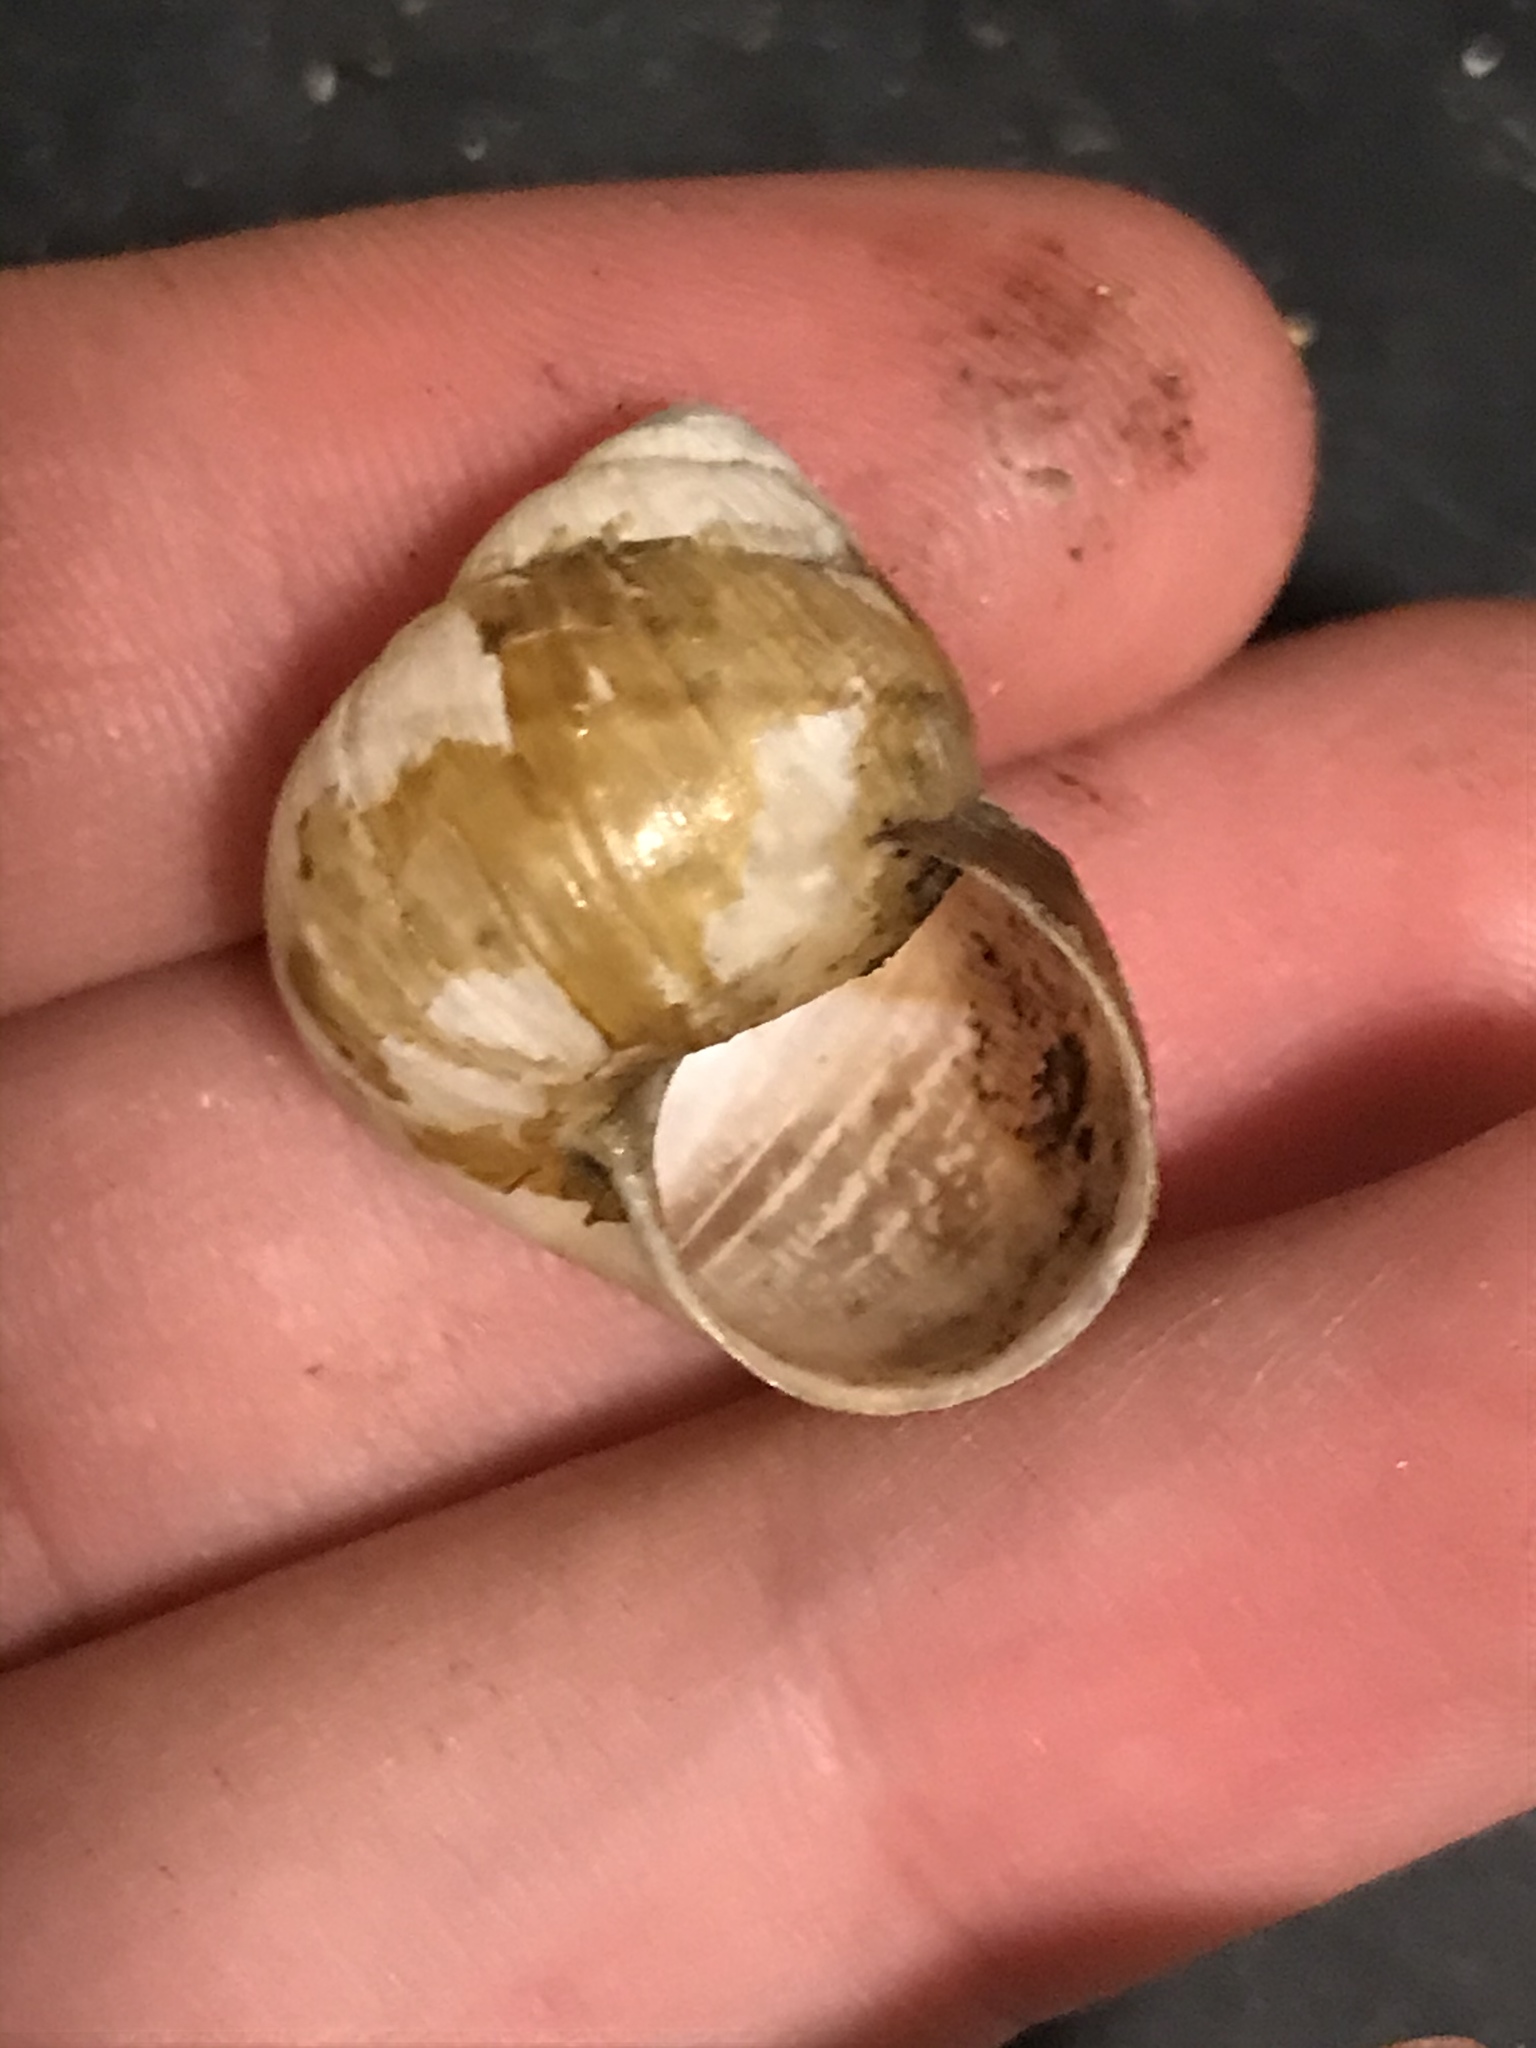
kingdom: Animalia
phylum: Mollusca
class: Gastropoda
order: Stylommatophora
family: Xanthonychidae
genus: Helminthoglypta
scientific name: Helminthoglypta californiensis
